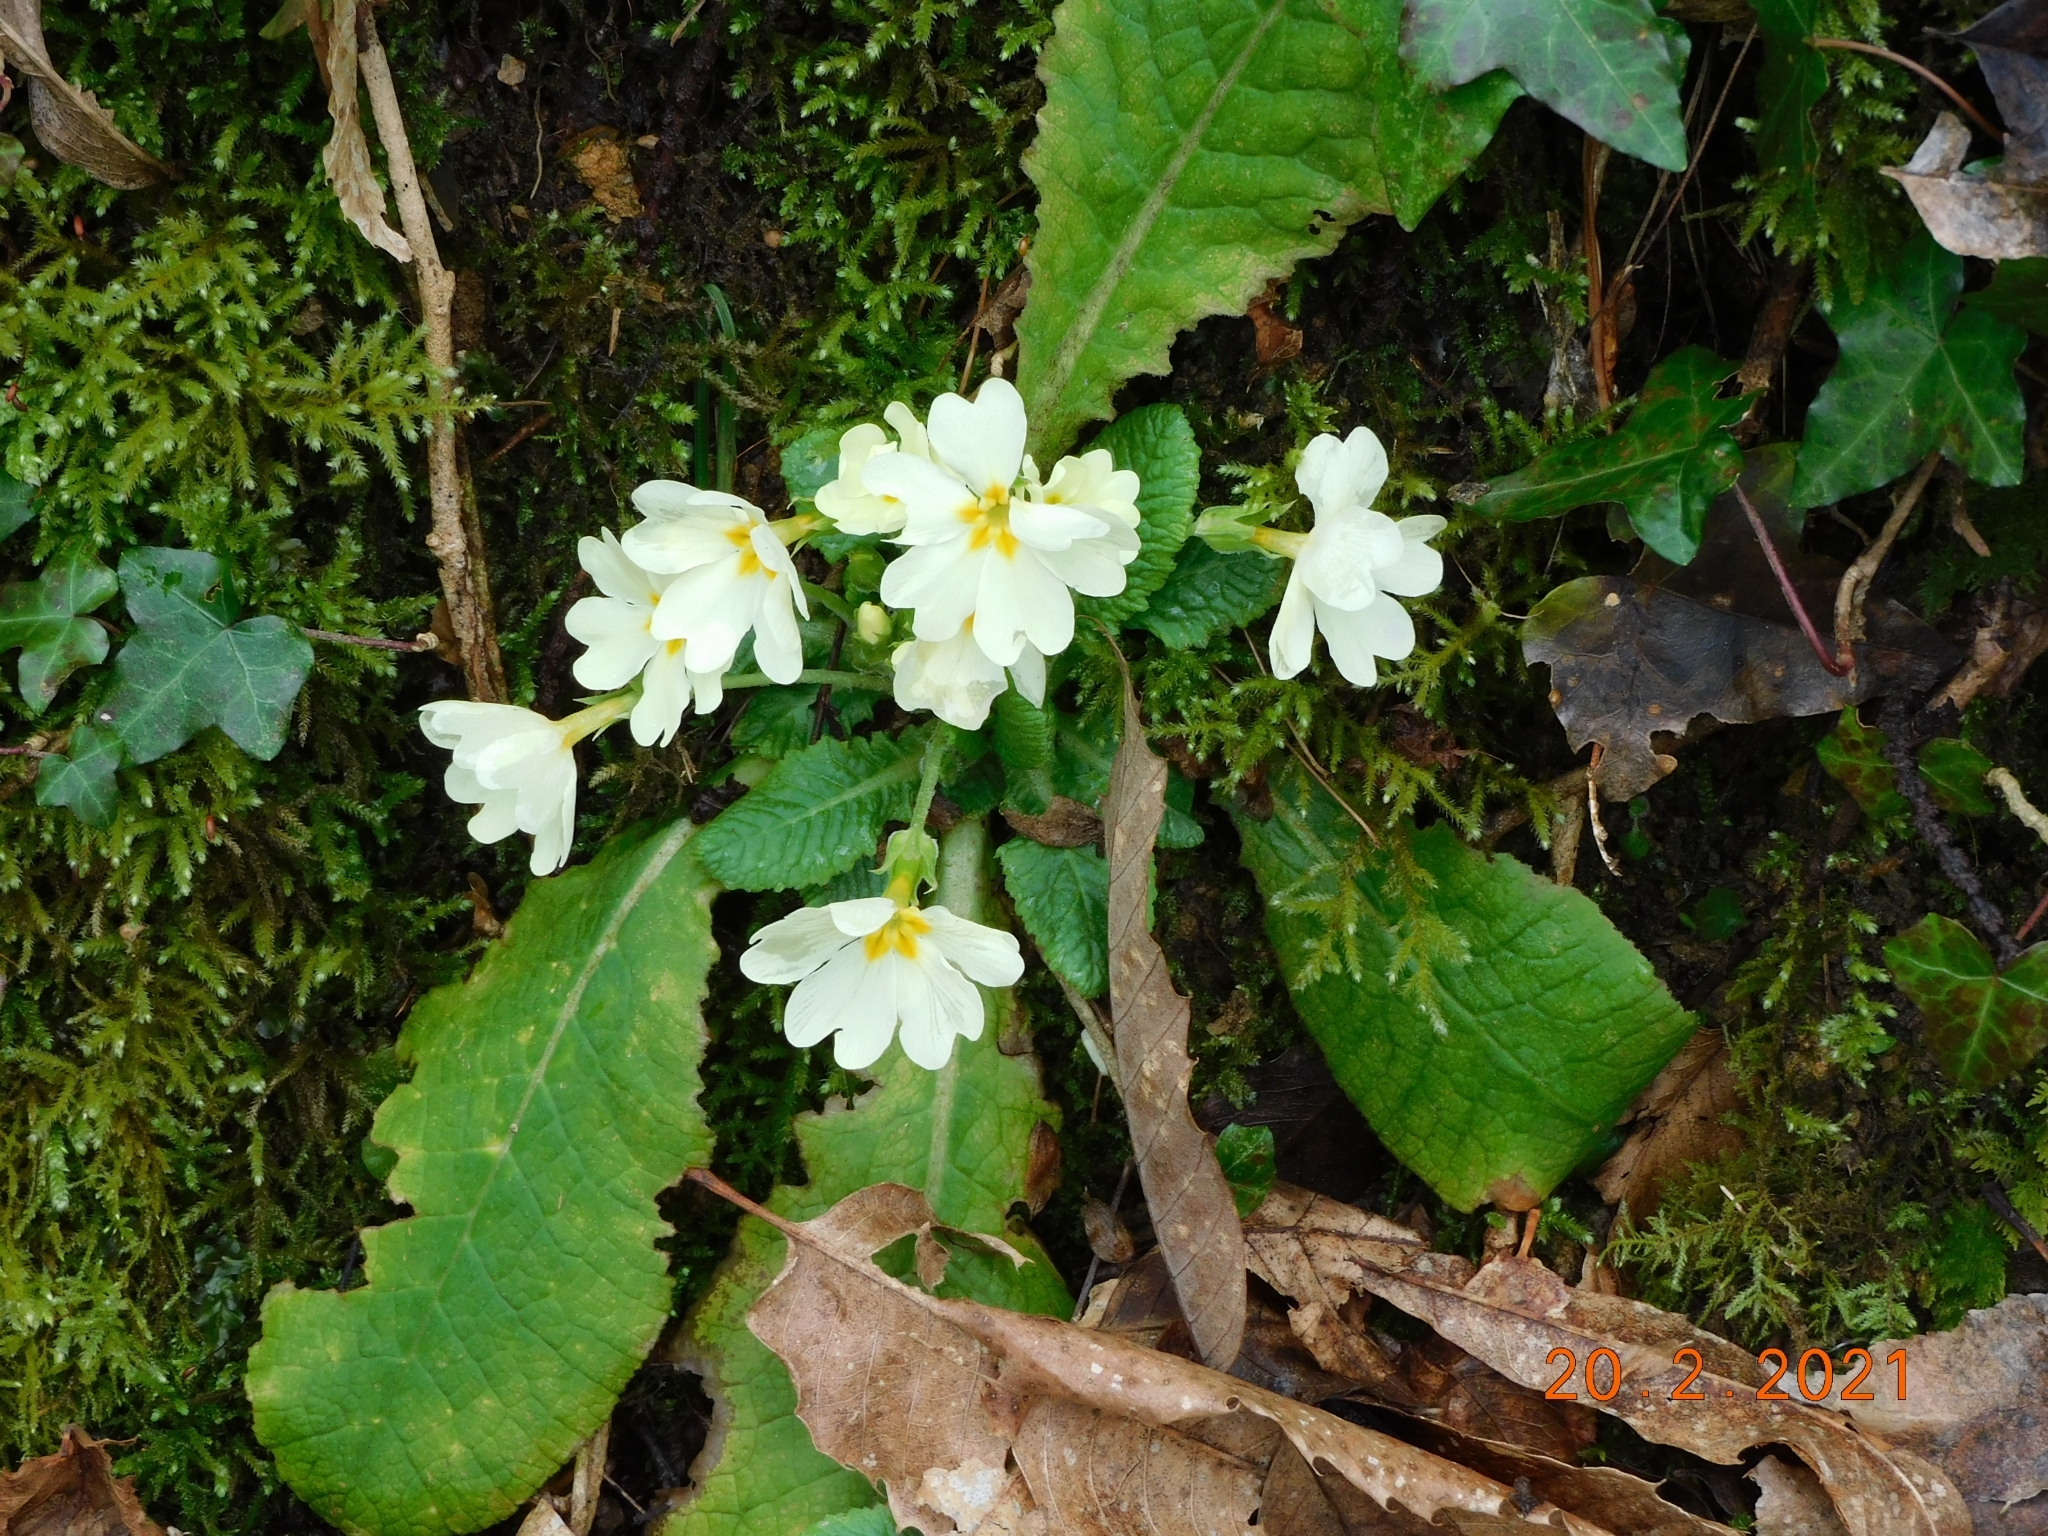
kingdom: Plantae
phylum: Tracheophyta
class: Magnoliopsida
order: Ericales
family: Primulaceae
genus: Primula
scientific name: Primula vulgaris
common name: Primrose
